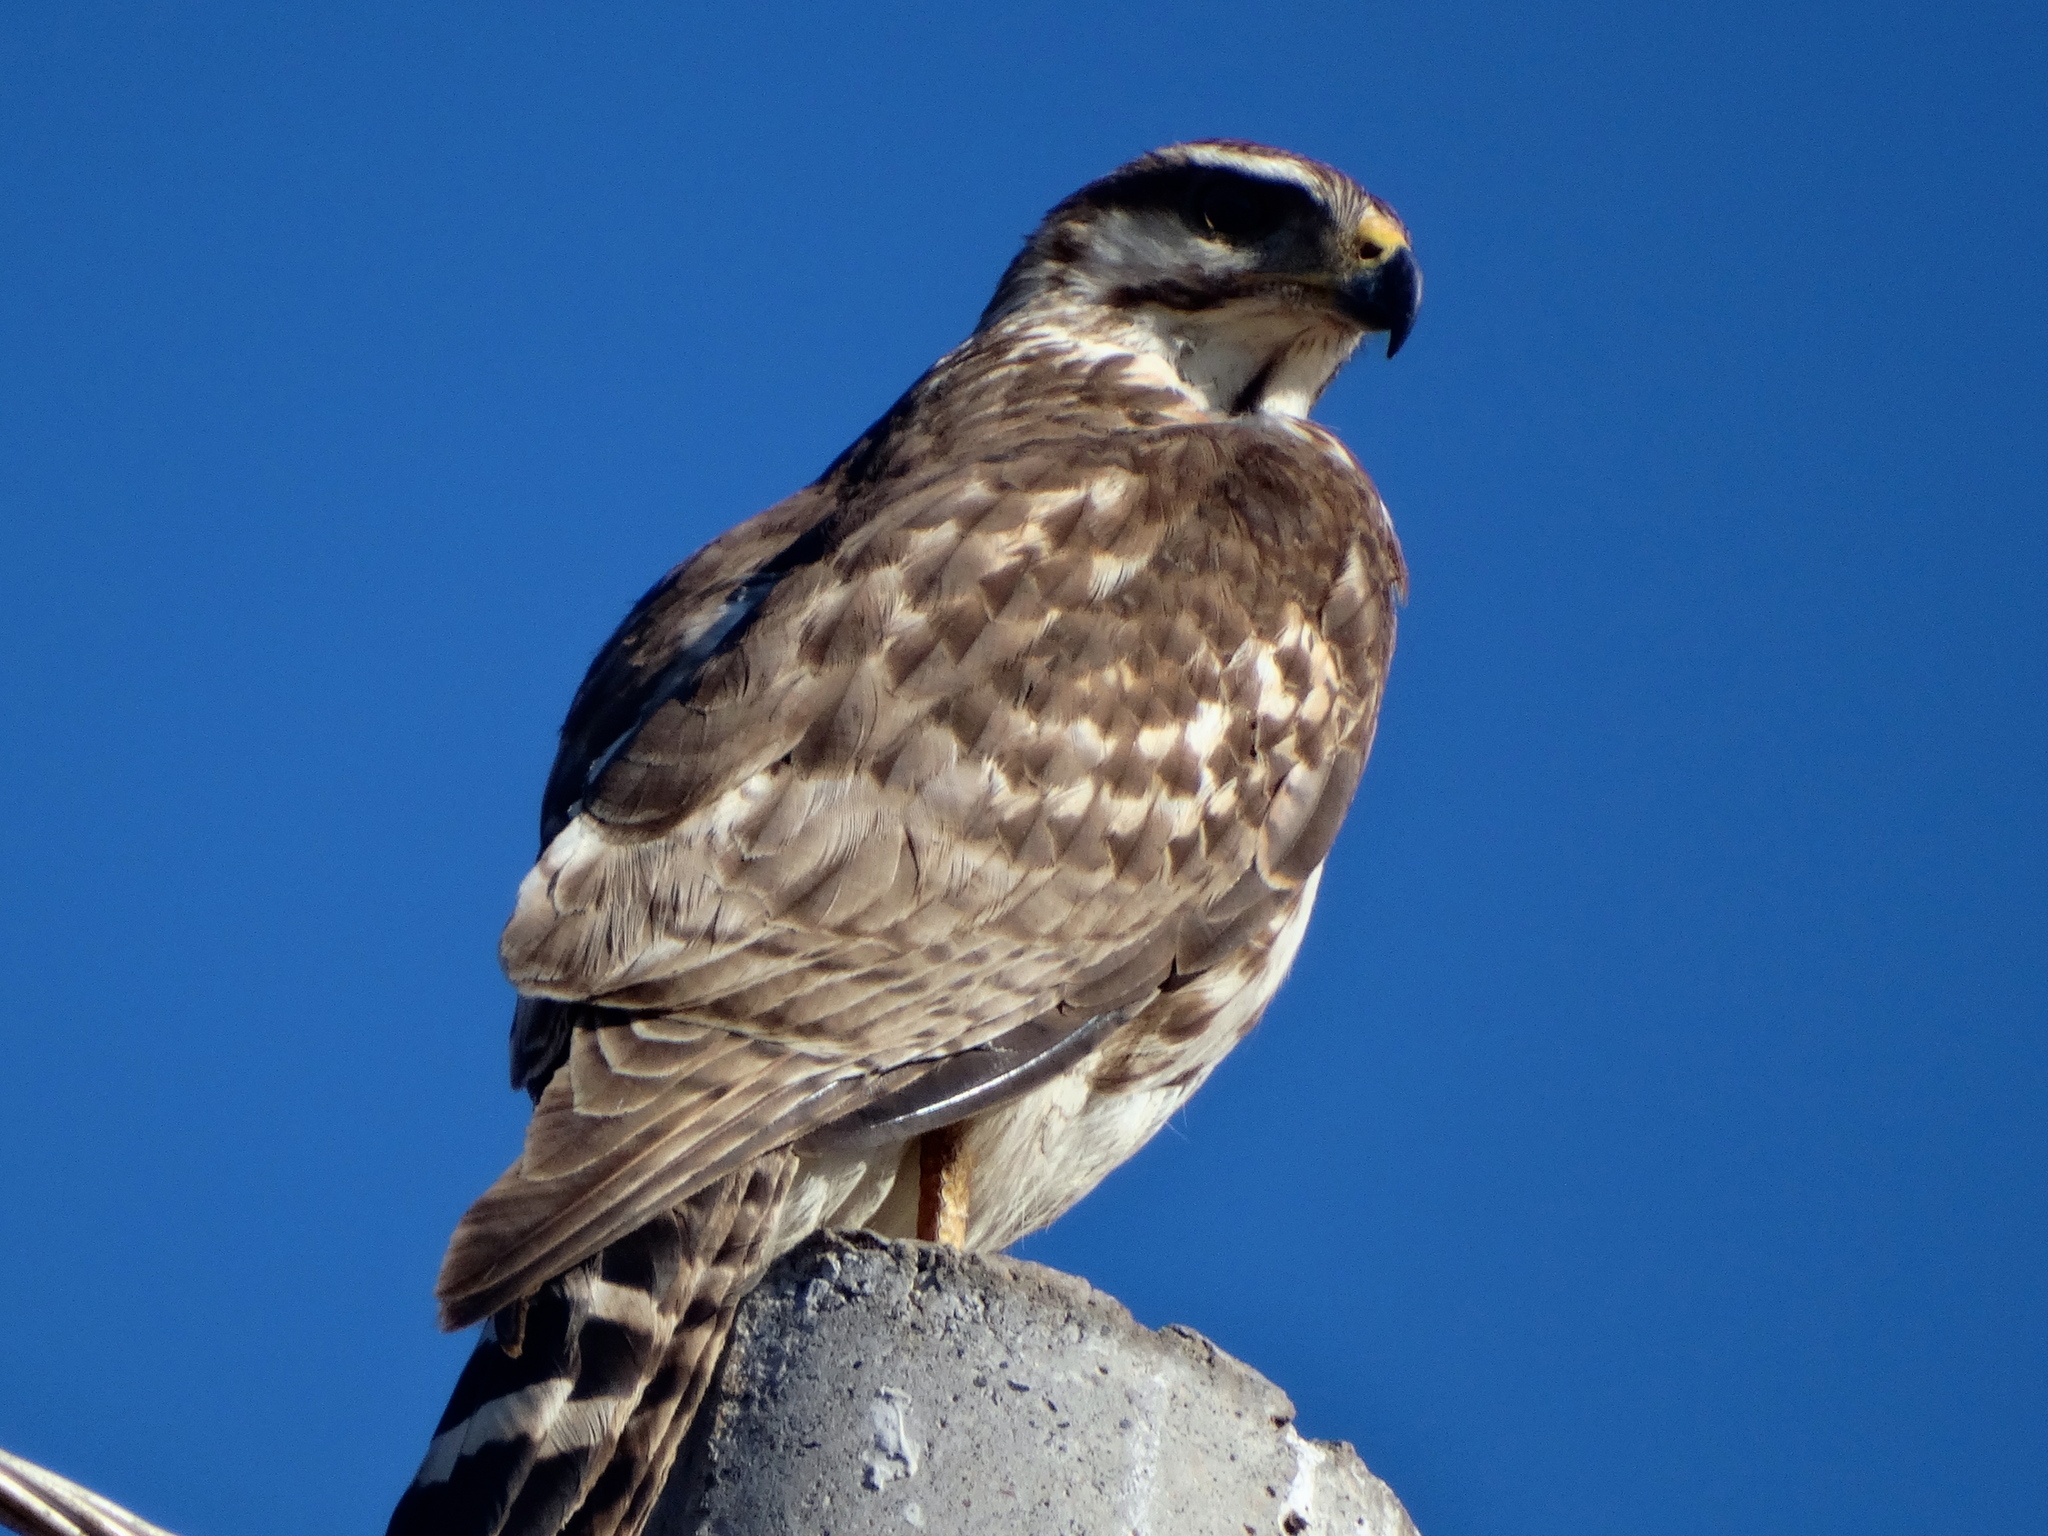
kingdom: Animalia
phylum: Chordata
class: Aves
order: Accipitriformes
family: Accipitridae
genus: Buteo
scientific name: Buteo nitidus
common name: Grey-lined hawk
